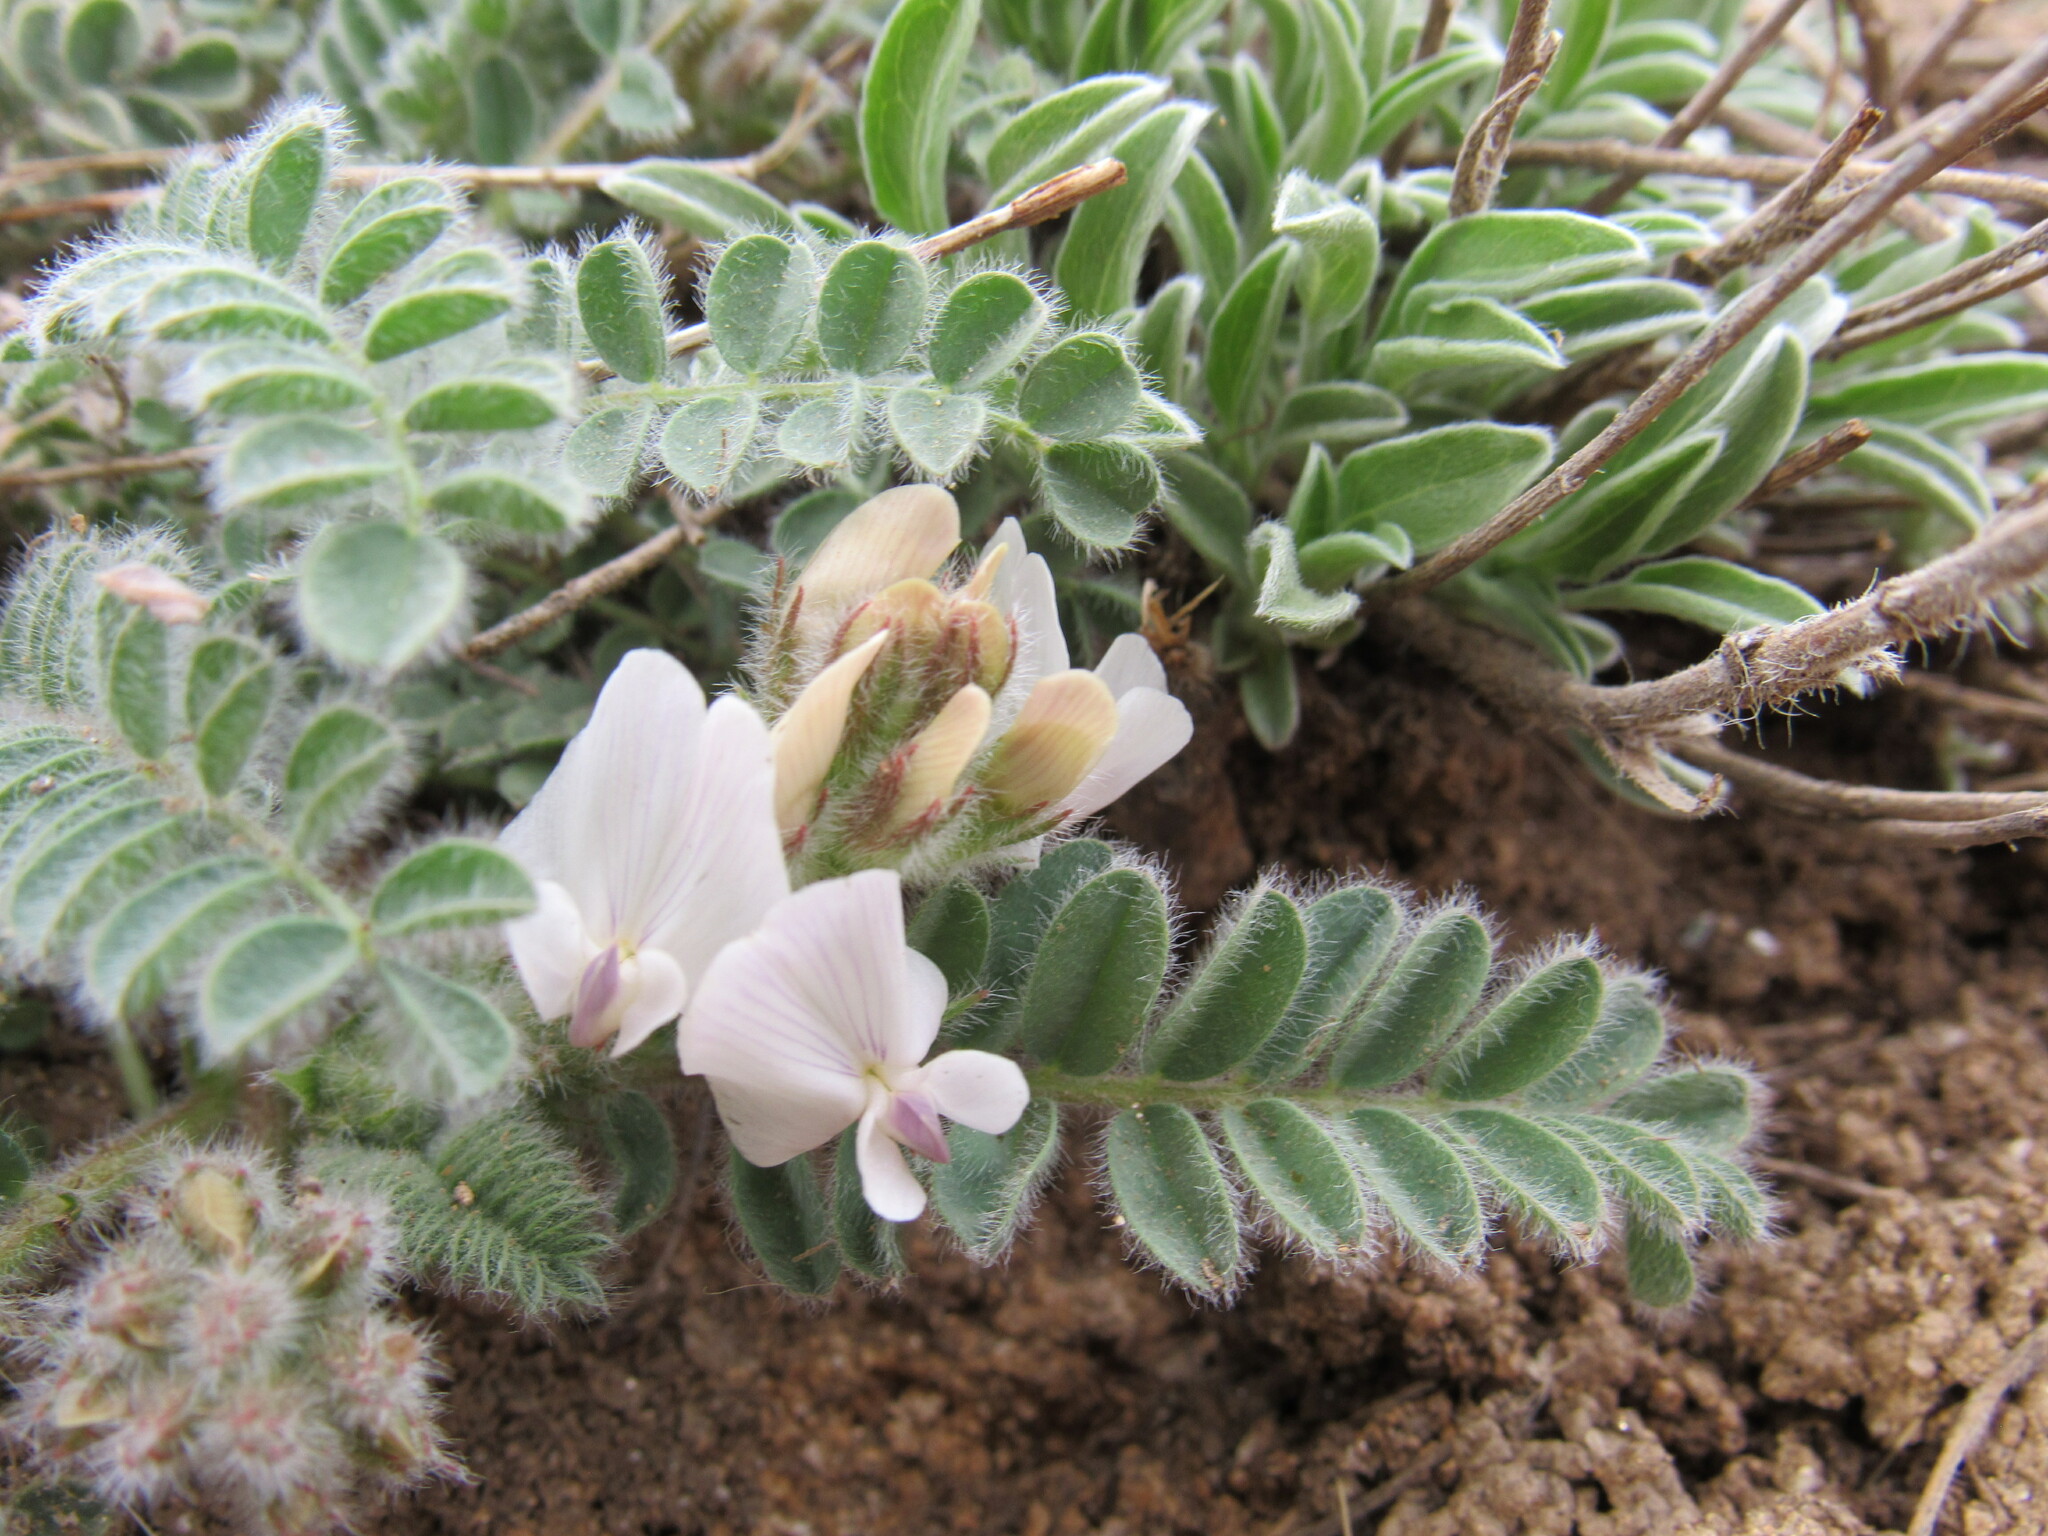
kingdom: Plantae
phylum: Tracheophyta
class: Magnoliopsida
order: Fabales
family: Fabaceae
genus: Astragalus
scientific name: Astragalus parryi
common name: Parry milk-vetch
